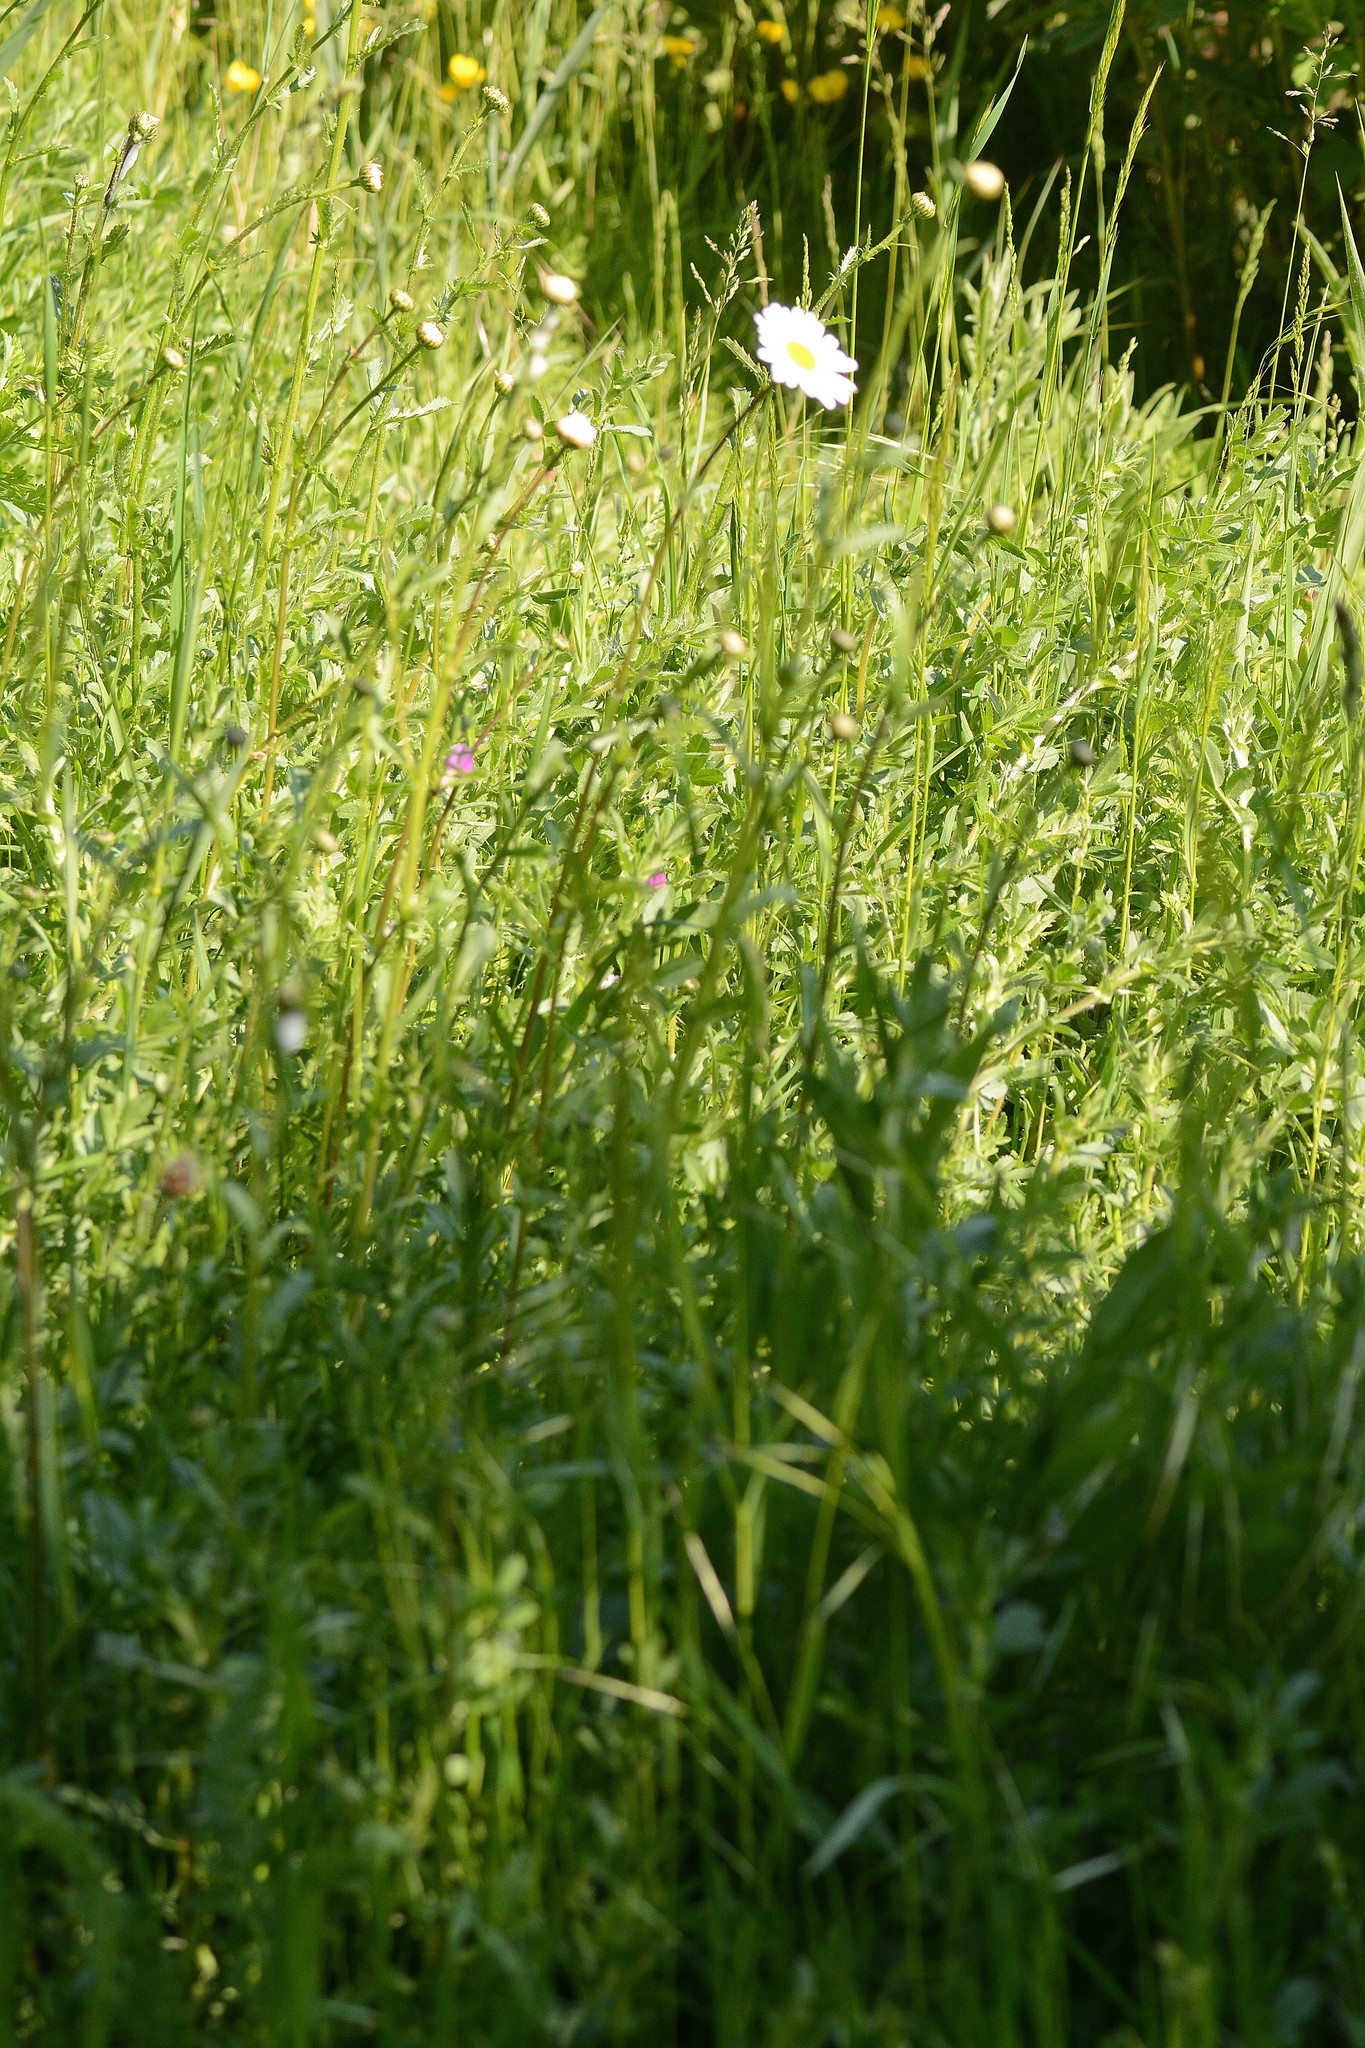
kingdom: Plantae
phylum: Tracheophyta
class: Magnoliopsida
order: Asterales
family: Asteraceae
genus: Leucanthemum
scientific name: Leucanthemum vulgare
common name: Oxeye daisy
